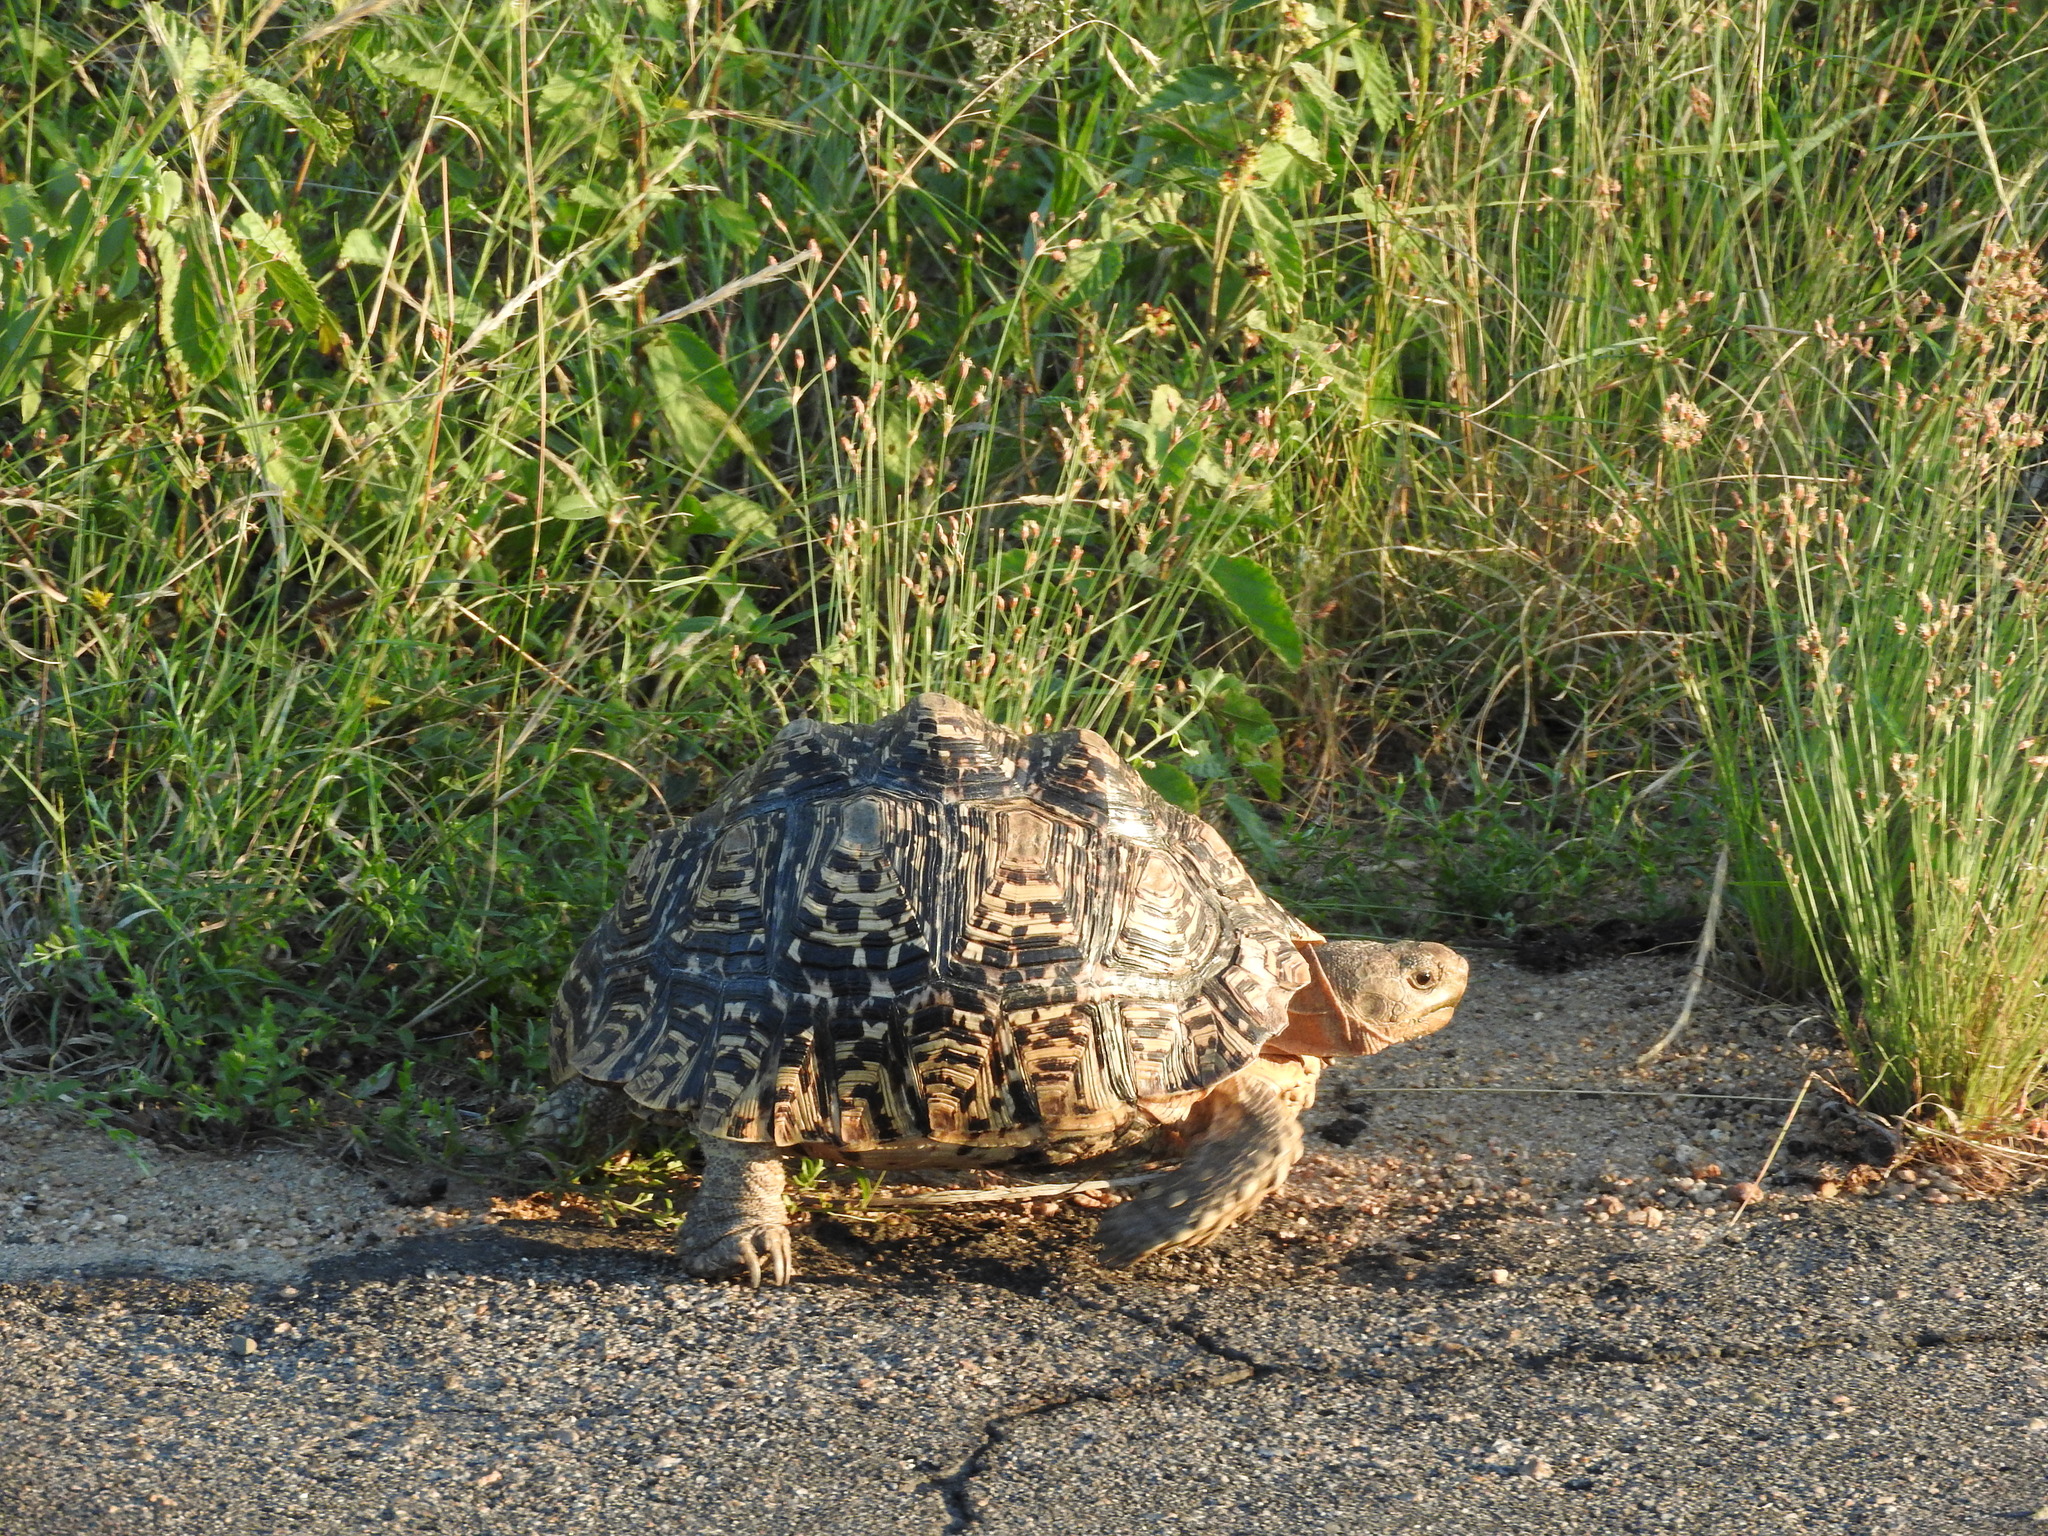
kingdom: Animalia
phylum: Chordata
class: Testudines
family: Testudinidae
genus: Stigmochelys
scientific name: Stigmochelys pardalis
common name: Leopard tortoise
